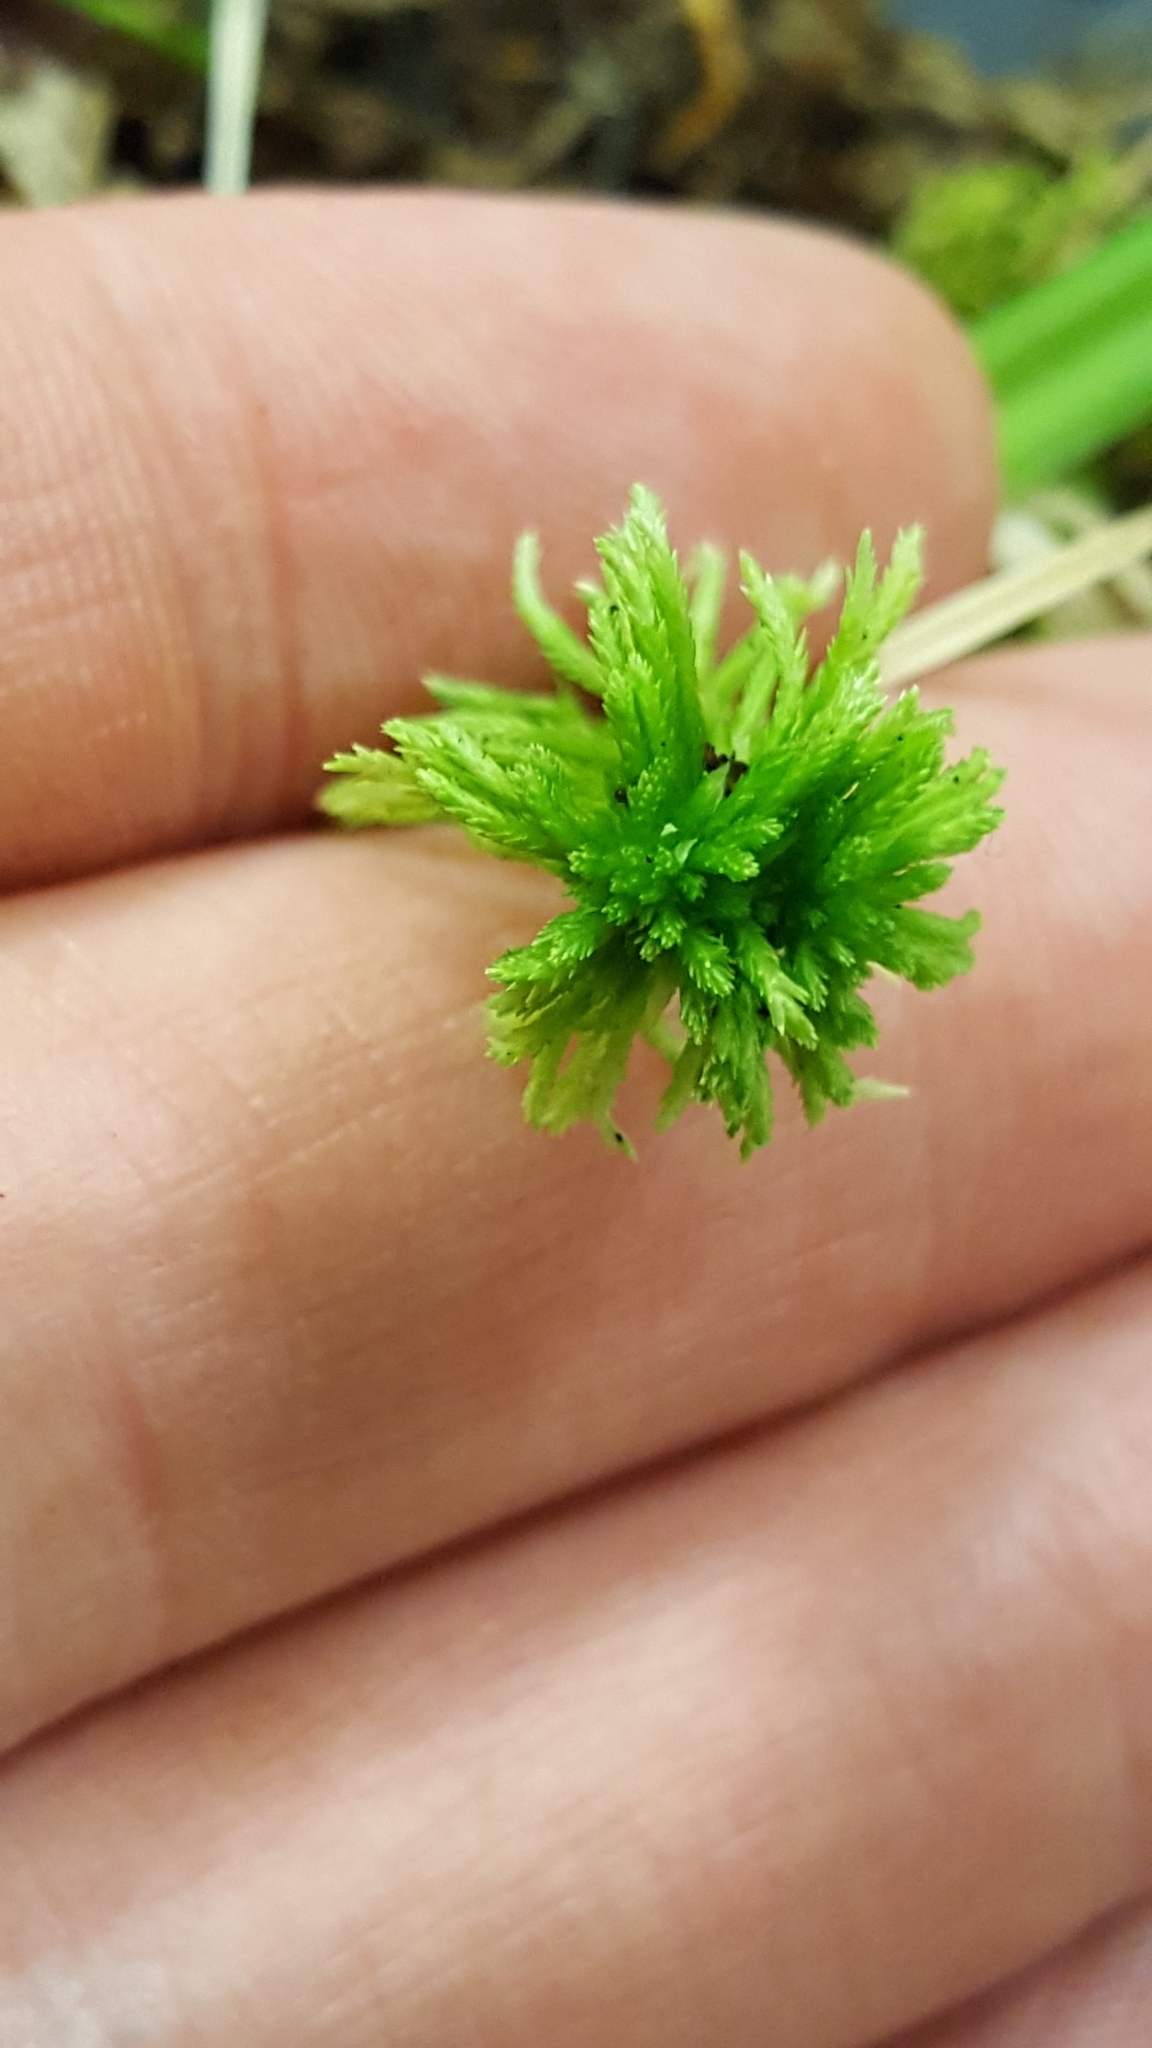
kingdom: Plantae
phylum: Bryophyta
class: Sphagnopsida
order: Sphagnales
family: Sphagnaceae
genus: Sphagnum
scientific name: Sphagnum fallax
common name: Flat-top peat moss
